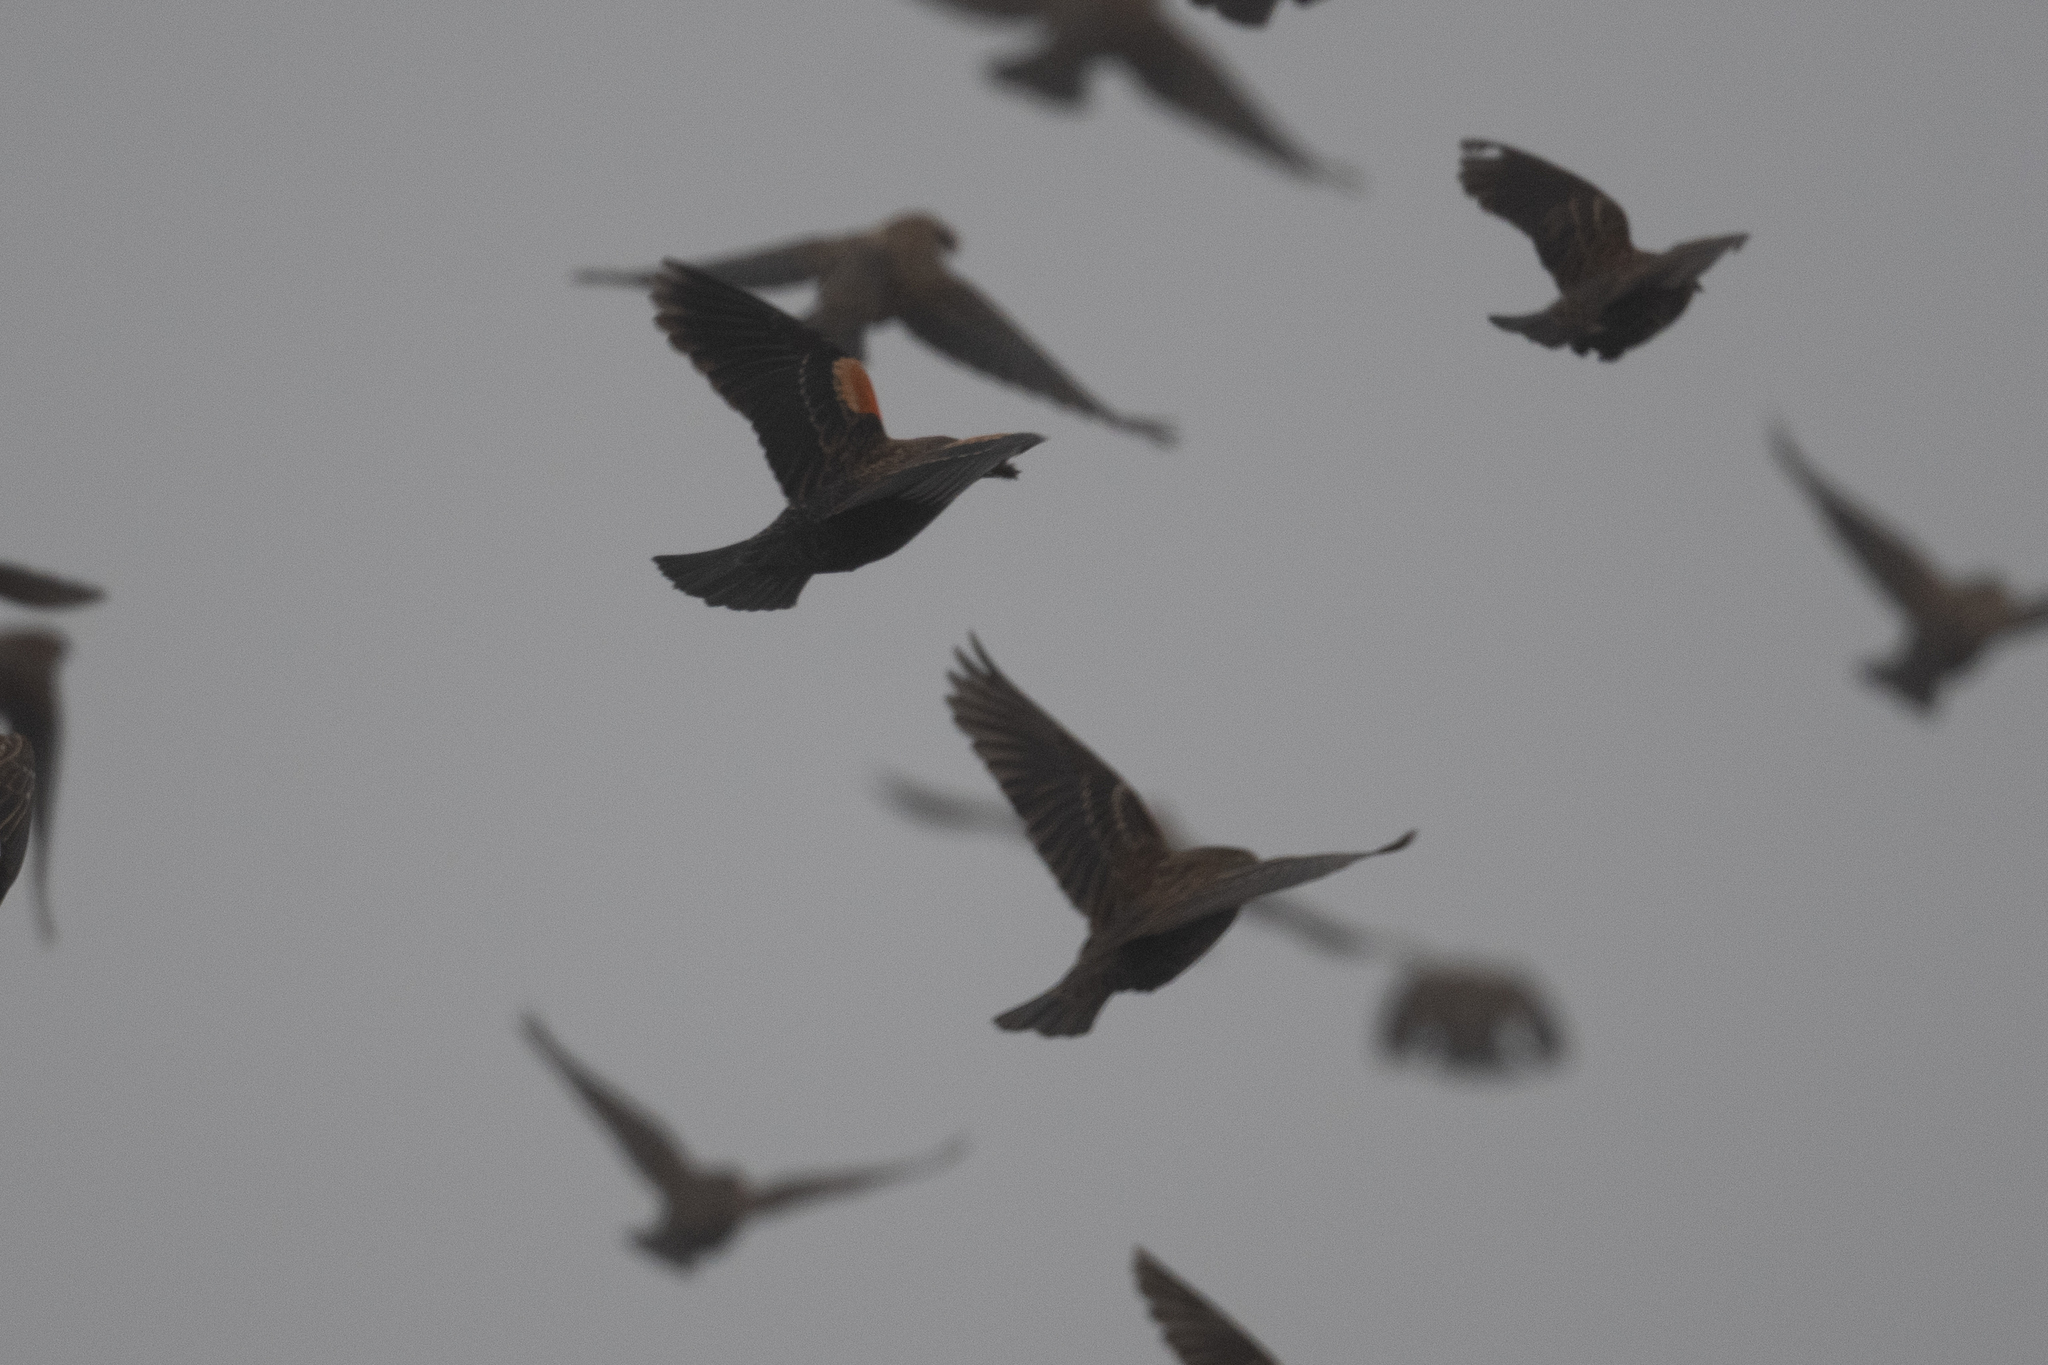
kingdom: Animalia
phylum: Chordata
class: Aves
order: Passeriformes
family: Icteridae
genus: Agelaius
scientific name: Agelaius phoeniceus
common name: Red-winged blackbird
